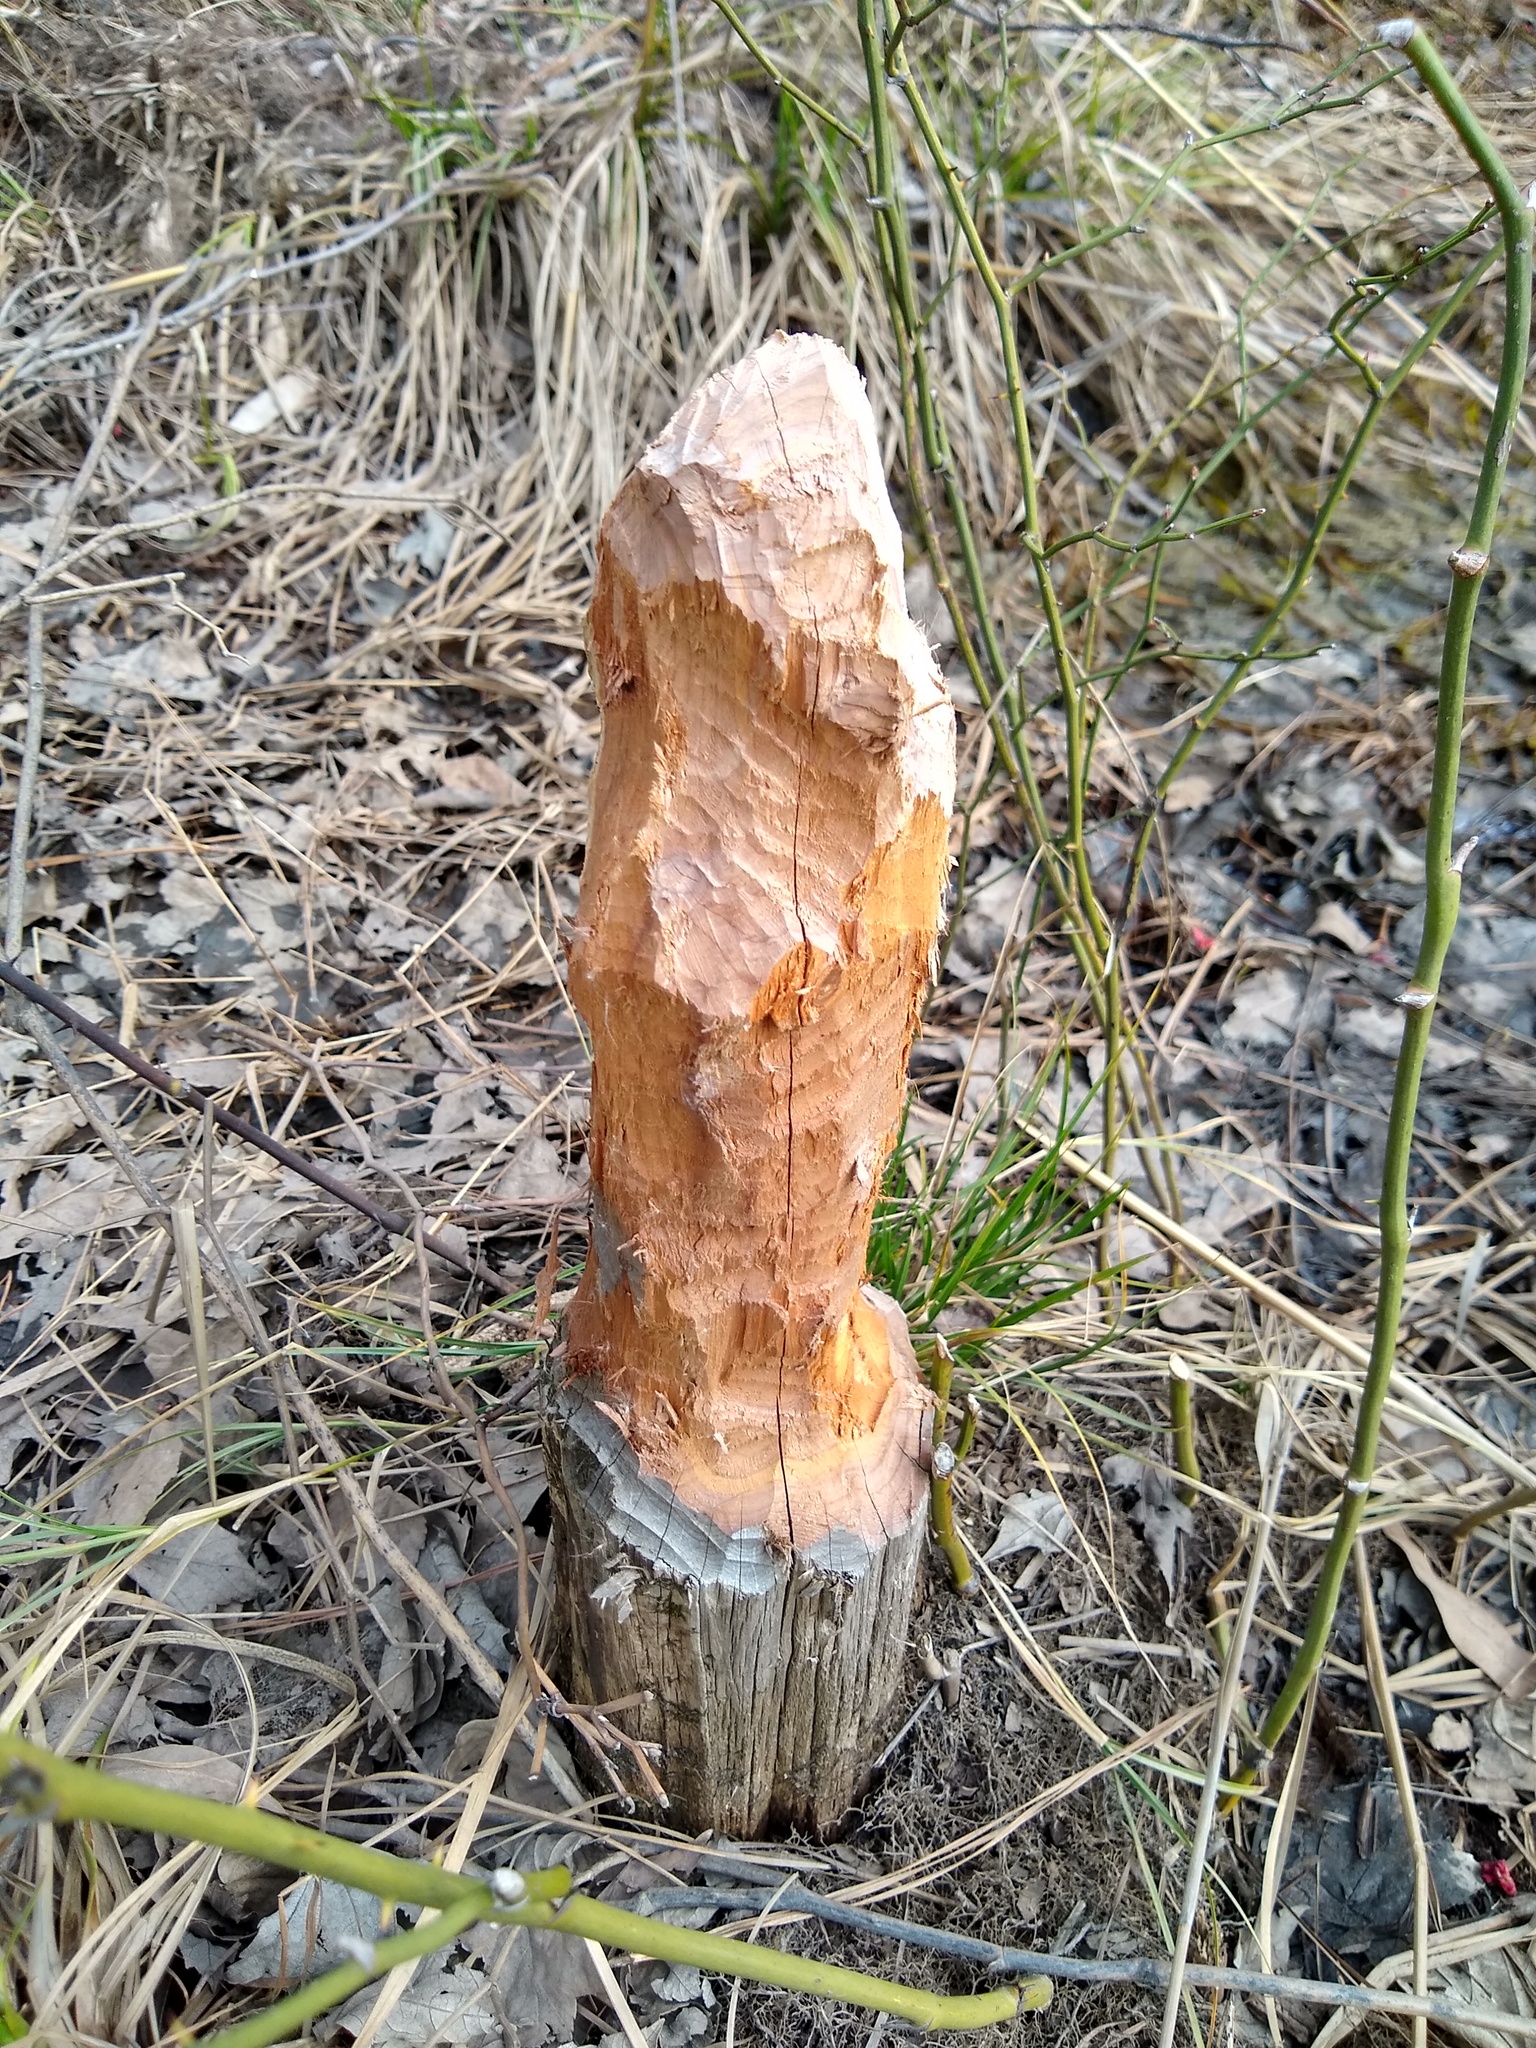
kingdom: Animalia
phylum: Chordata
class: Mammalia
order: Rodentia
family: Castoridae
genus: Castor
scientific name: Castor canadensis
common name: American beaver
